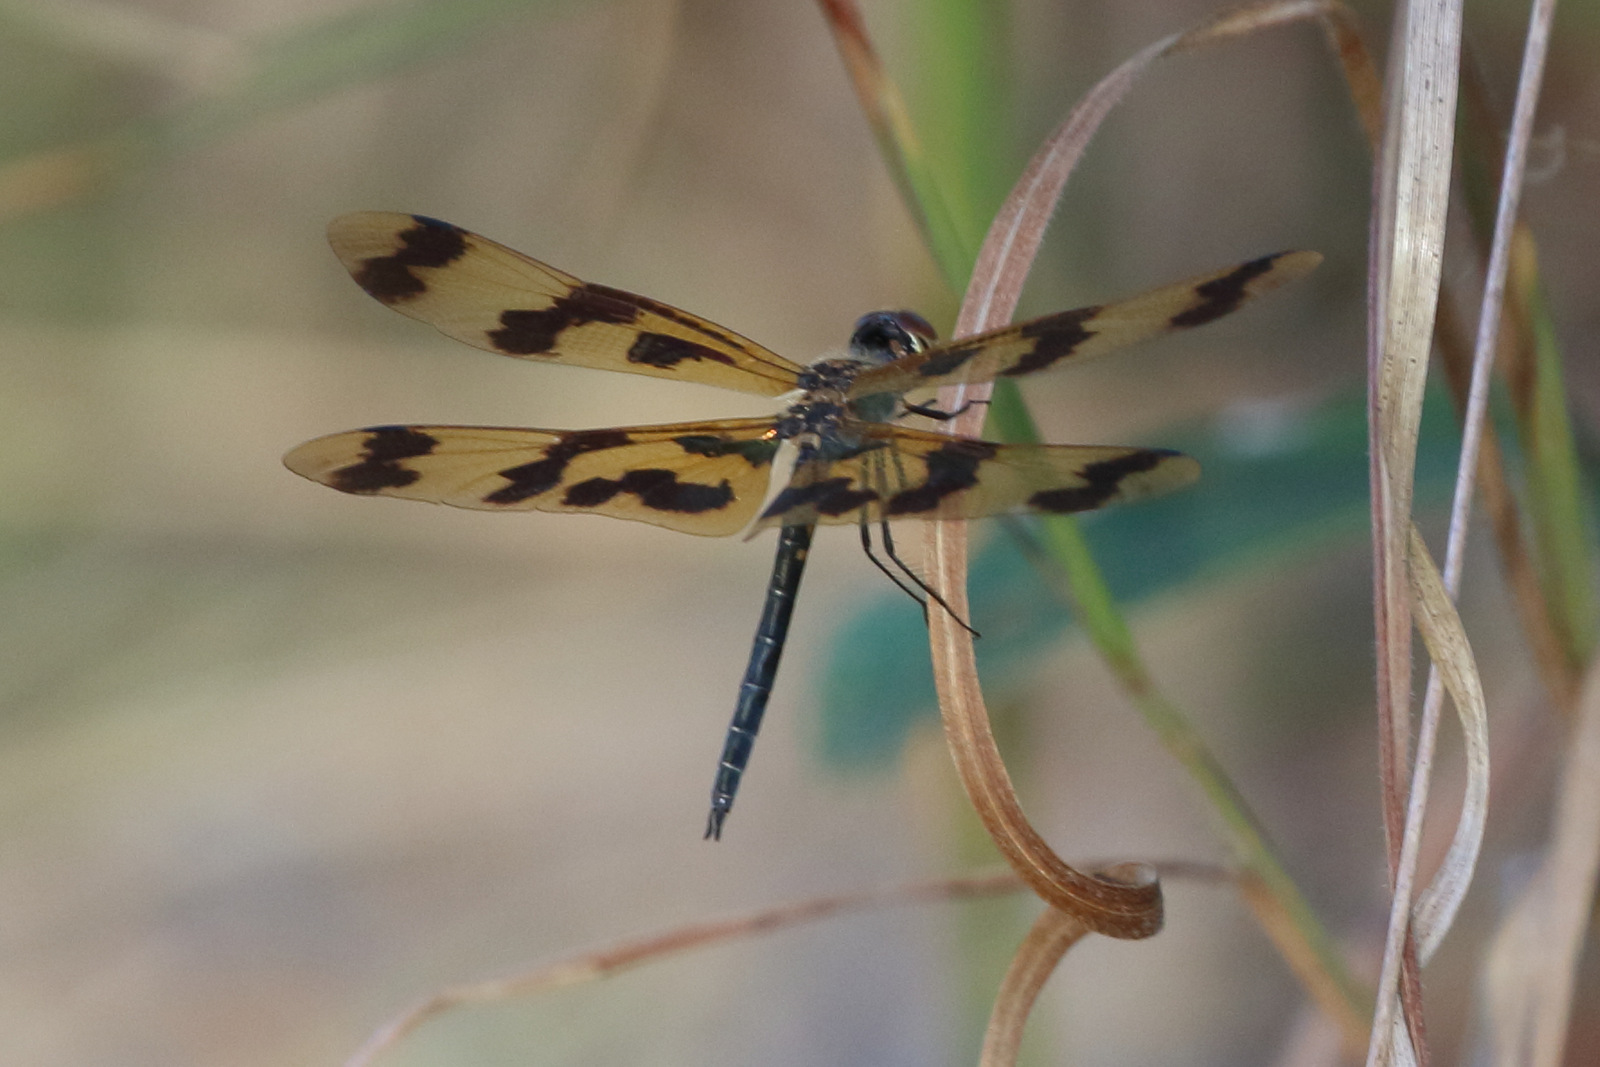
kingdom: Animalia
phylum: Arthropoda
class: Insecta
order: Odonata
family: Libellulidae
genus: Rhyothemis
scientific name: Rhyothemis graphiptera
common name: Graphic flutterer
